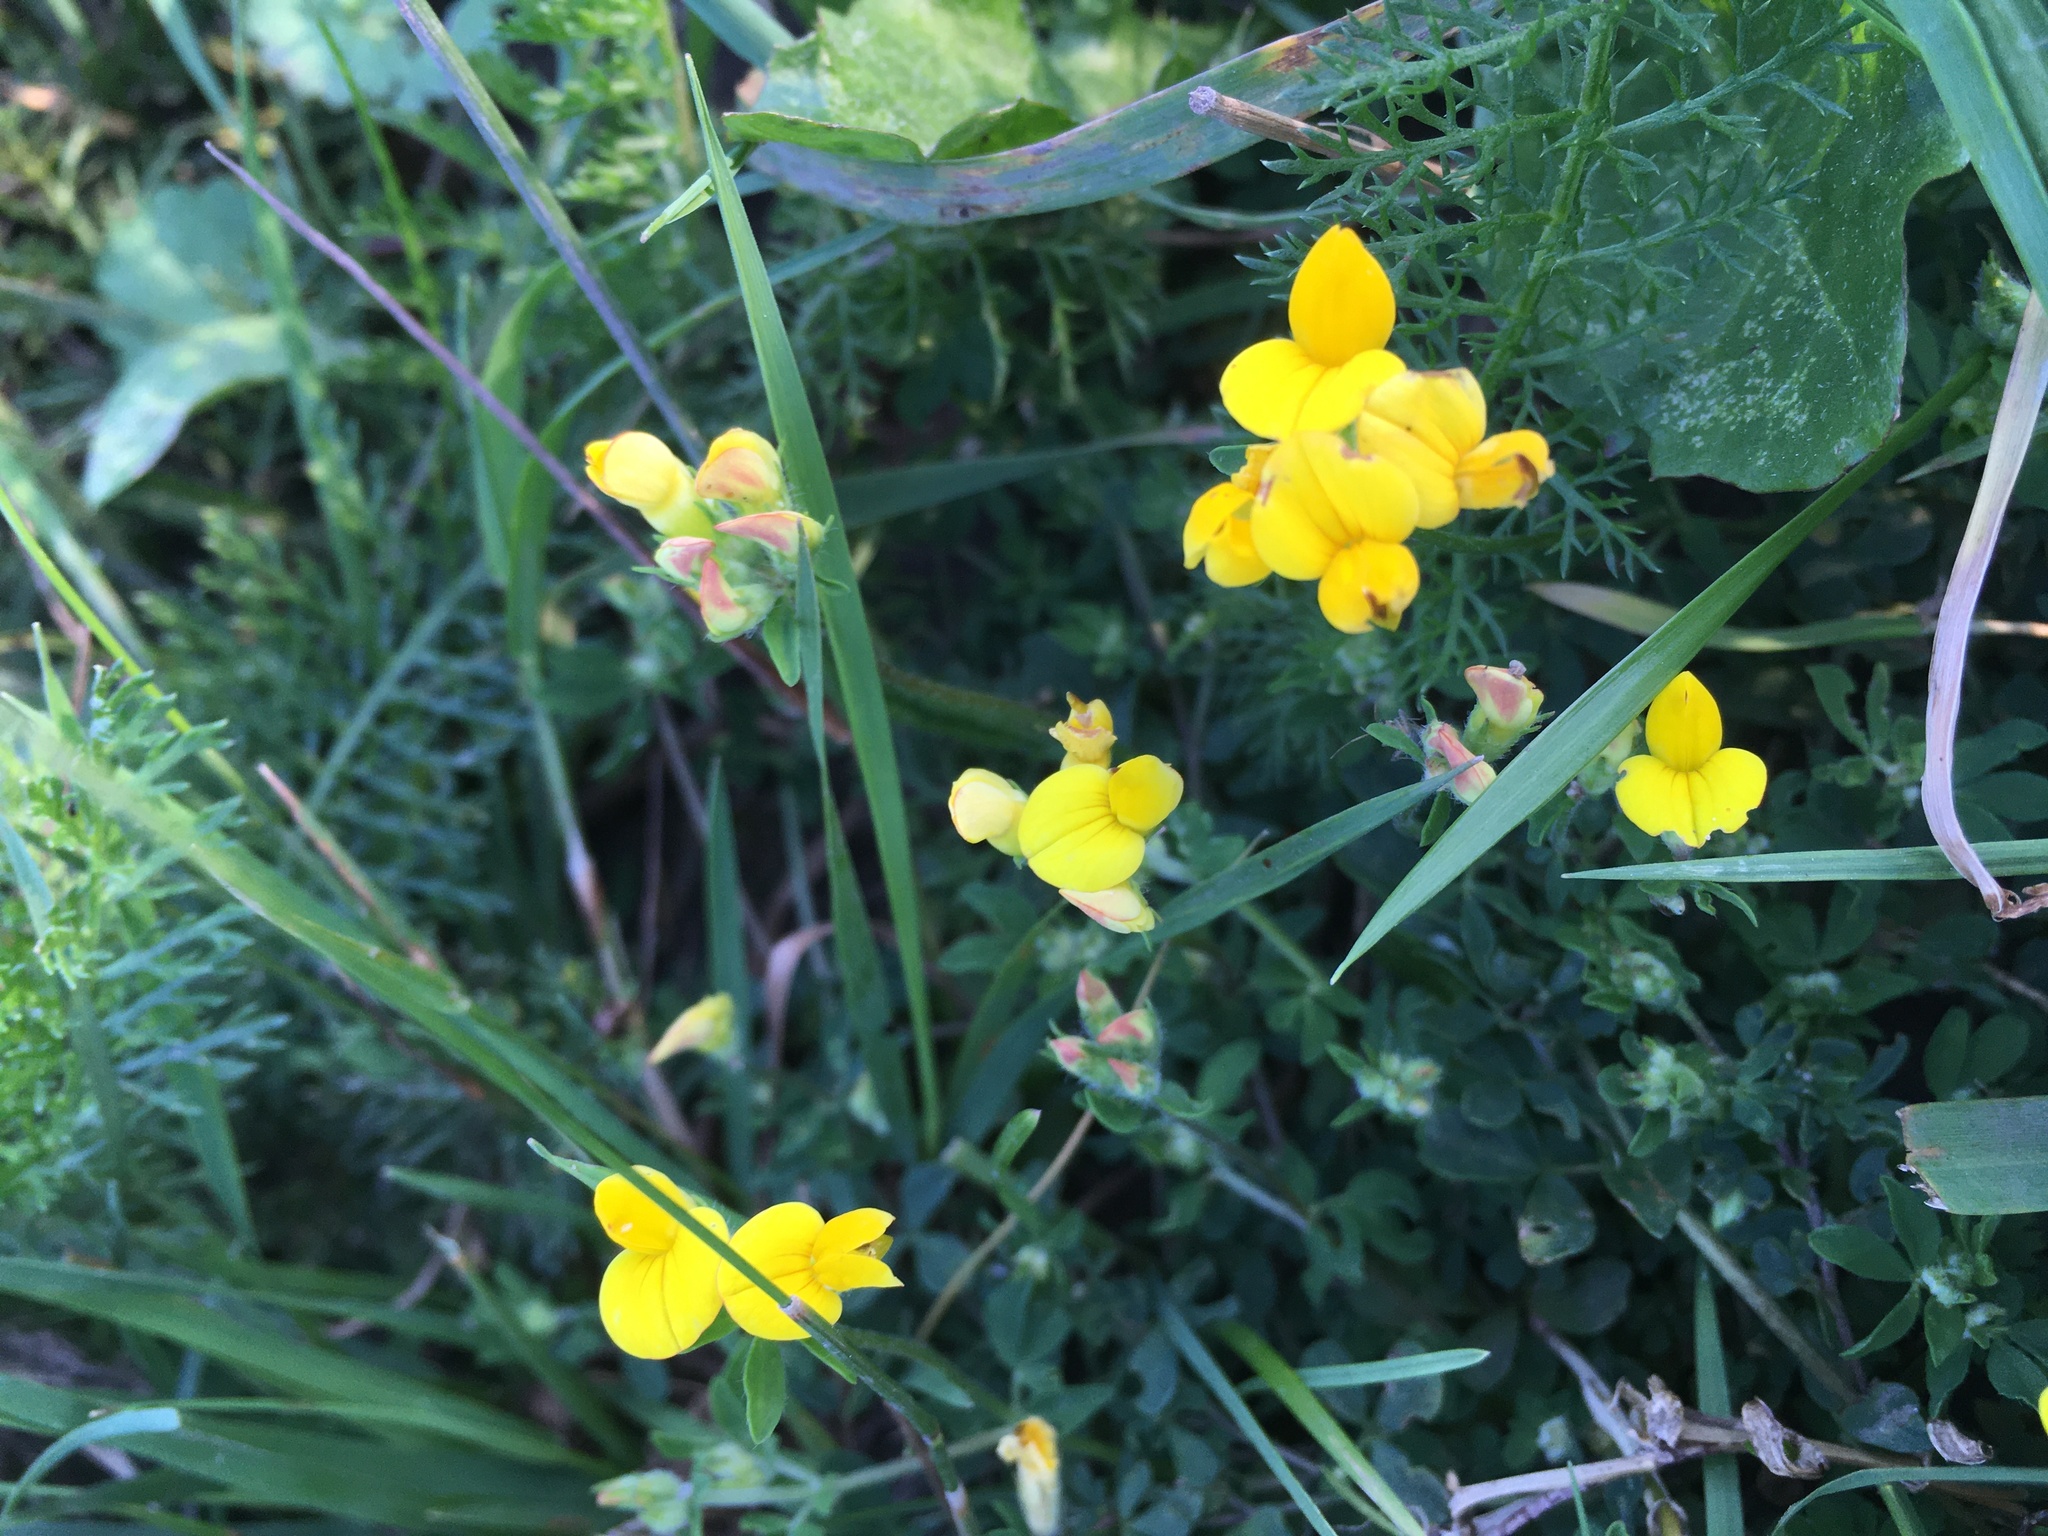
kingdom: Plantae
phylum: Tracheophyta
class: Magnoliopsida
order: Fabales
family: Fabaceae
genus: Lotus
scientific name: Lotus corniculatus
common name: Common bird's-foot-trefoil
